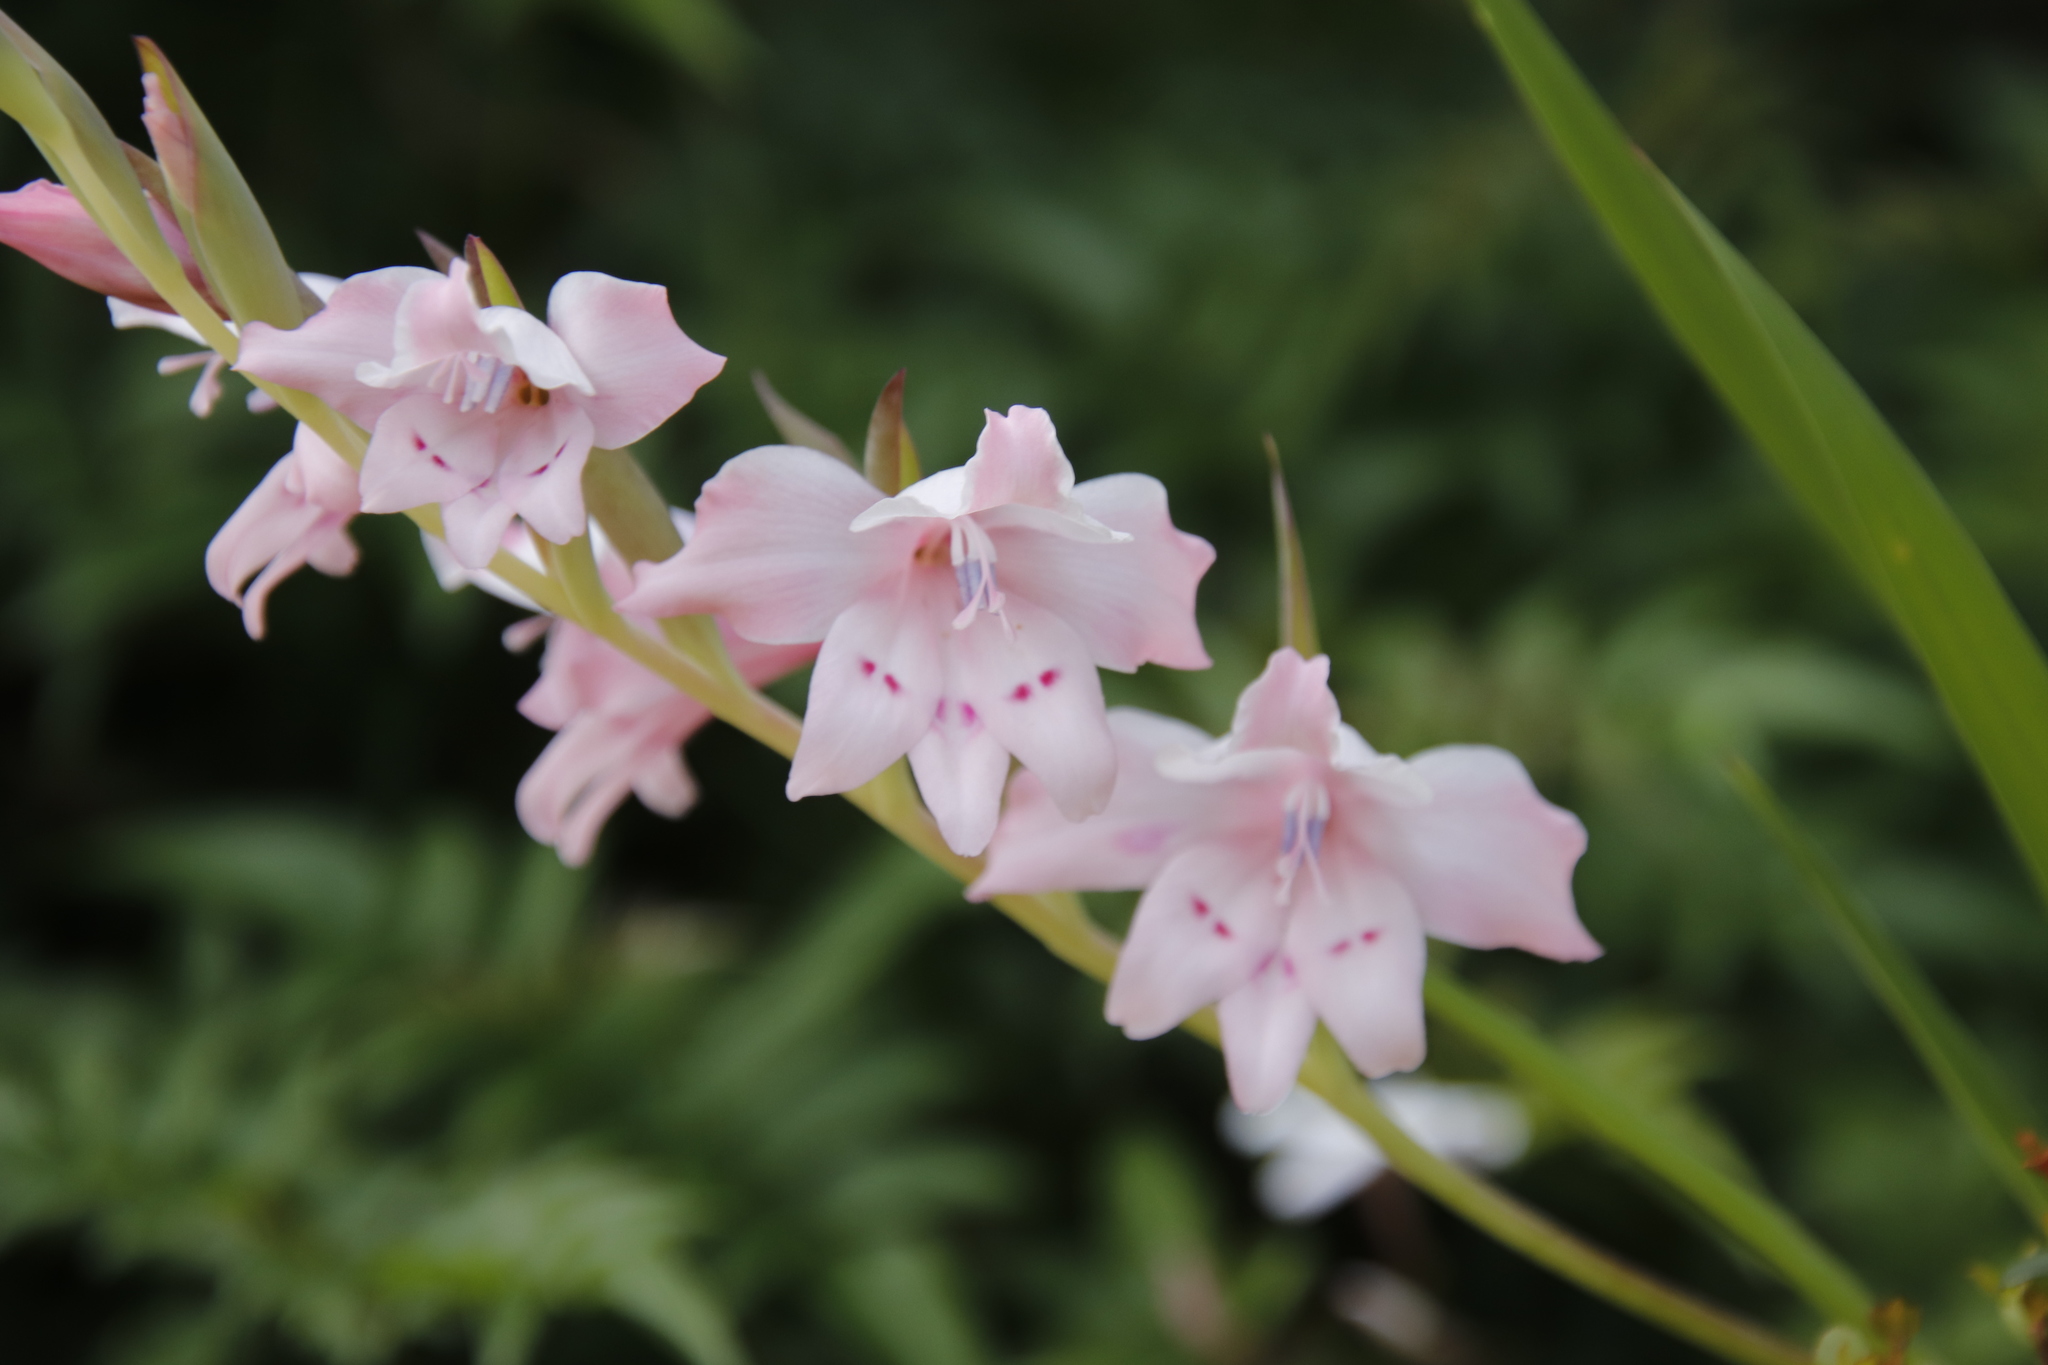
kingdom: Plantae
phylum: Tracheophyta
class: Liliopsida
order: Asparagales
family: Iridaceae
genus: Gladiolus
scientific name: Gladiolus carneus
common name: Painted-lady
